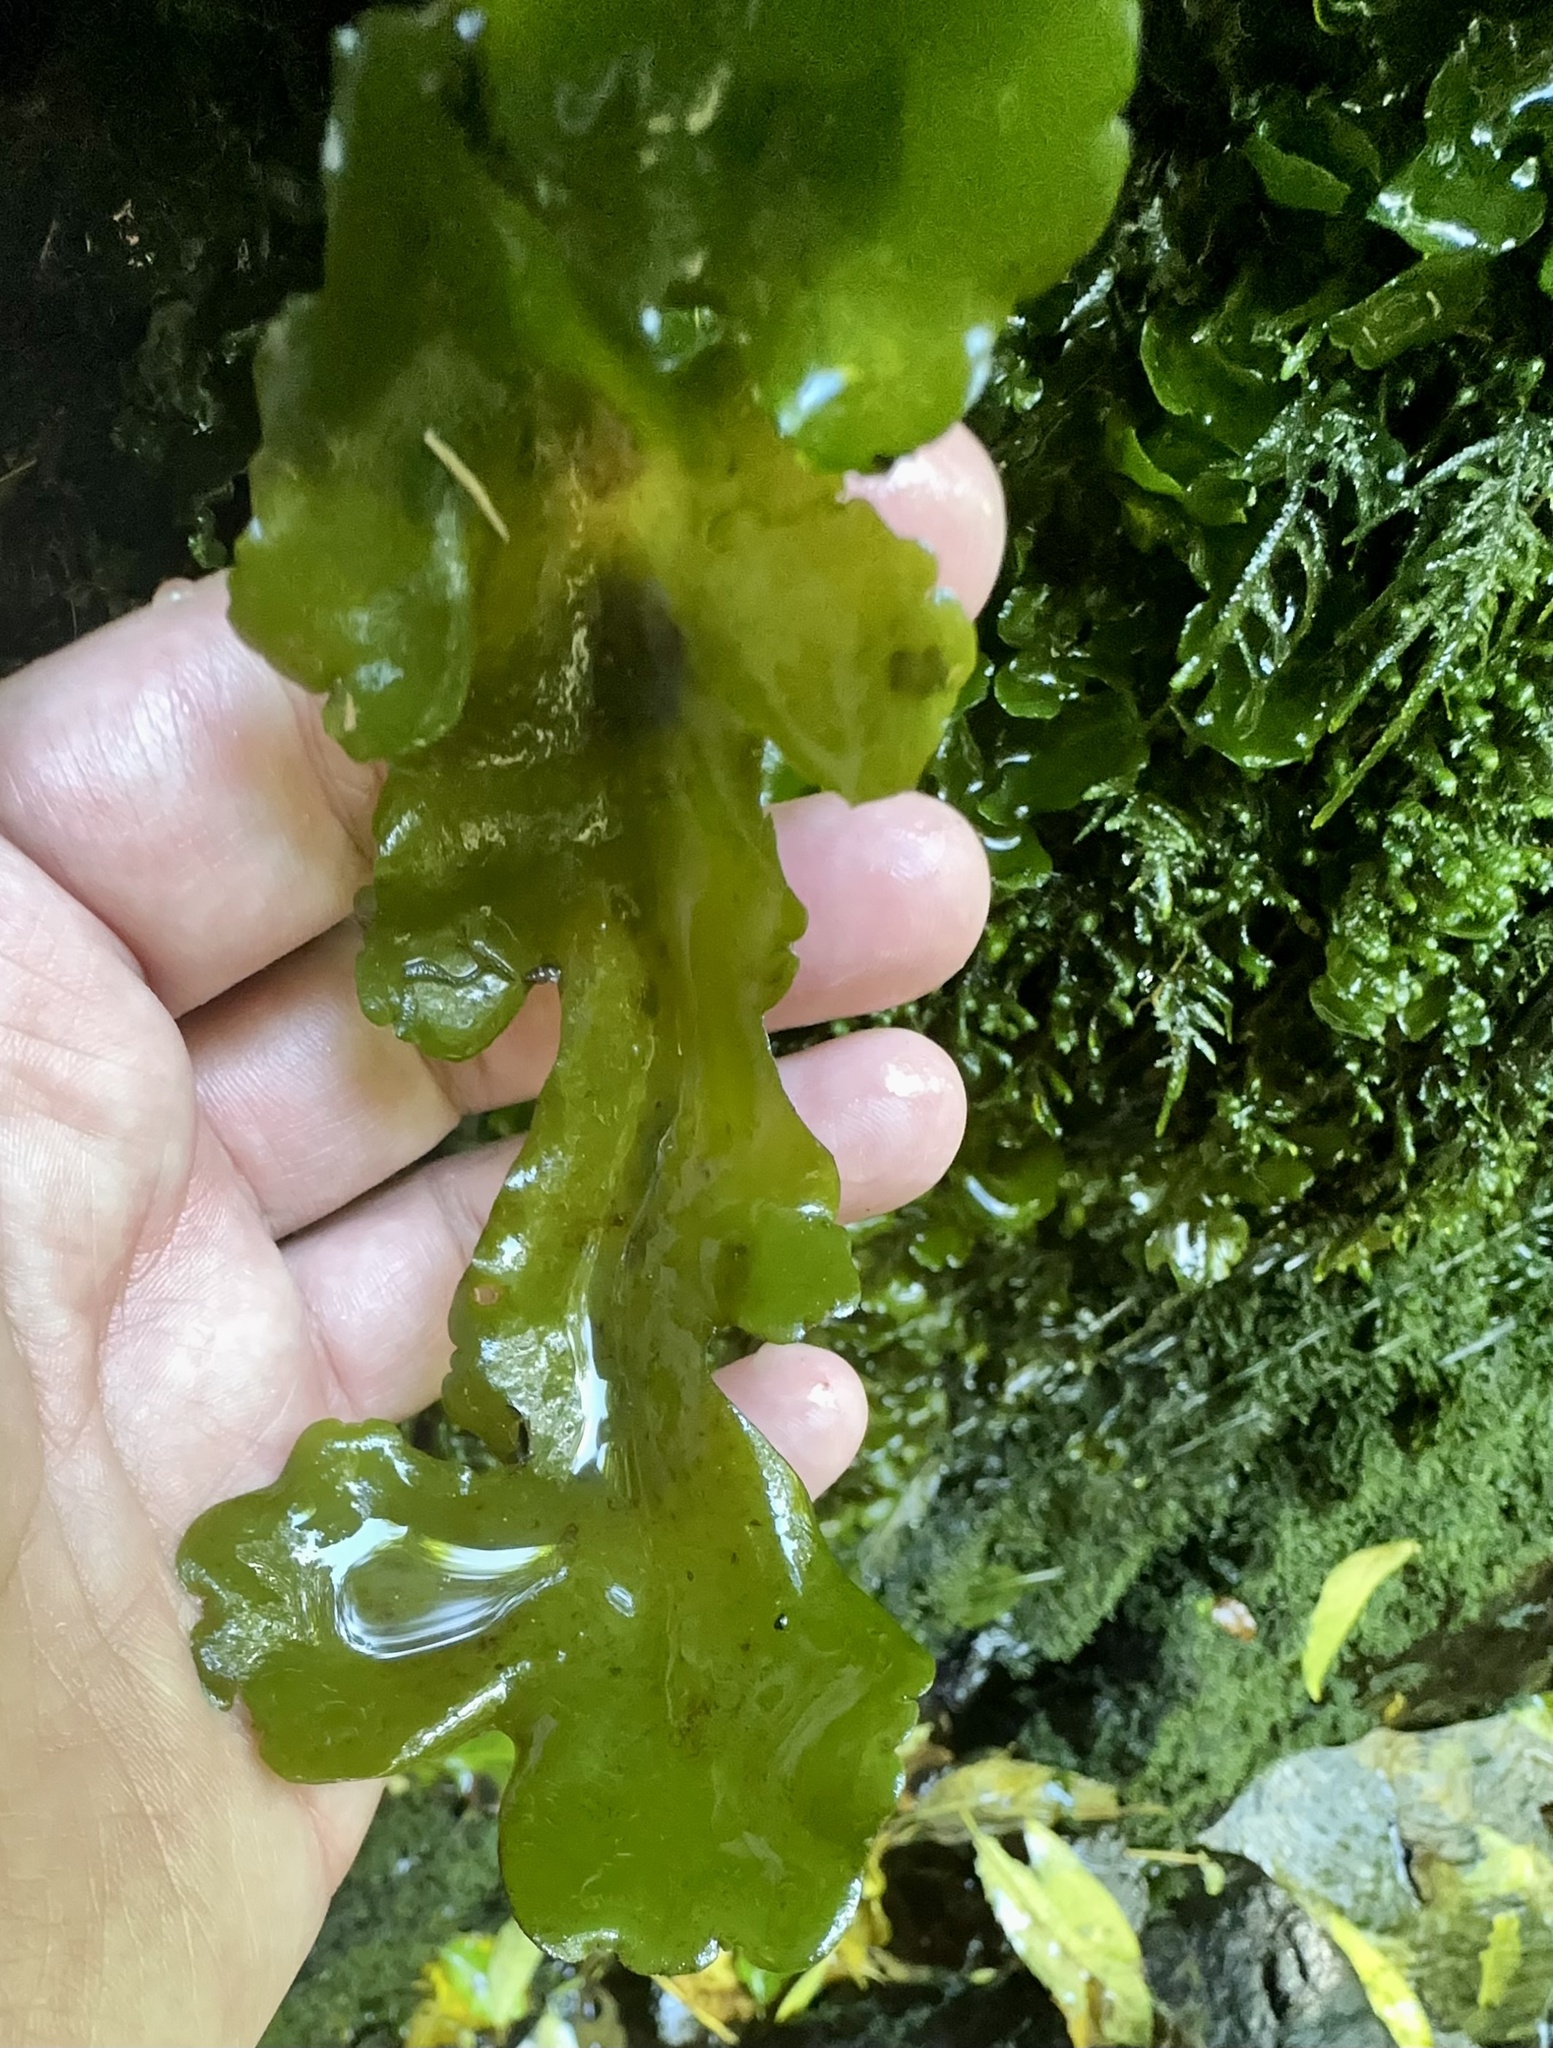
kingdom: Plantae
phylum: Marchantiophyta
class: Marchantiopsida
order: Marchantiales
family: Monocleaceae
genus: Monoclea
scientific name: Monoclea forsteri
